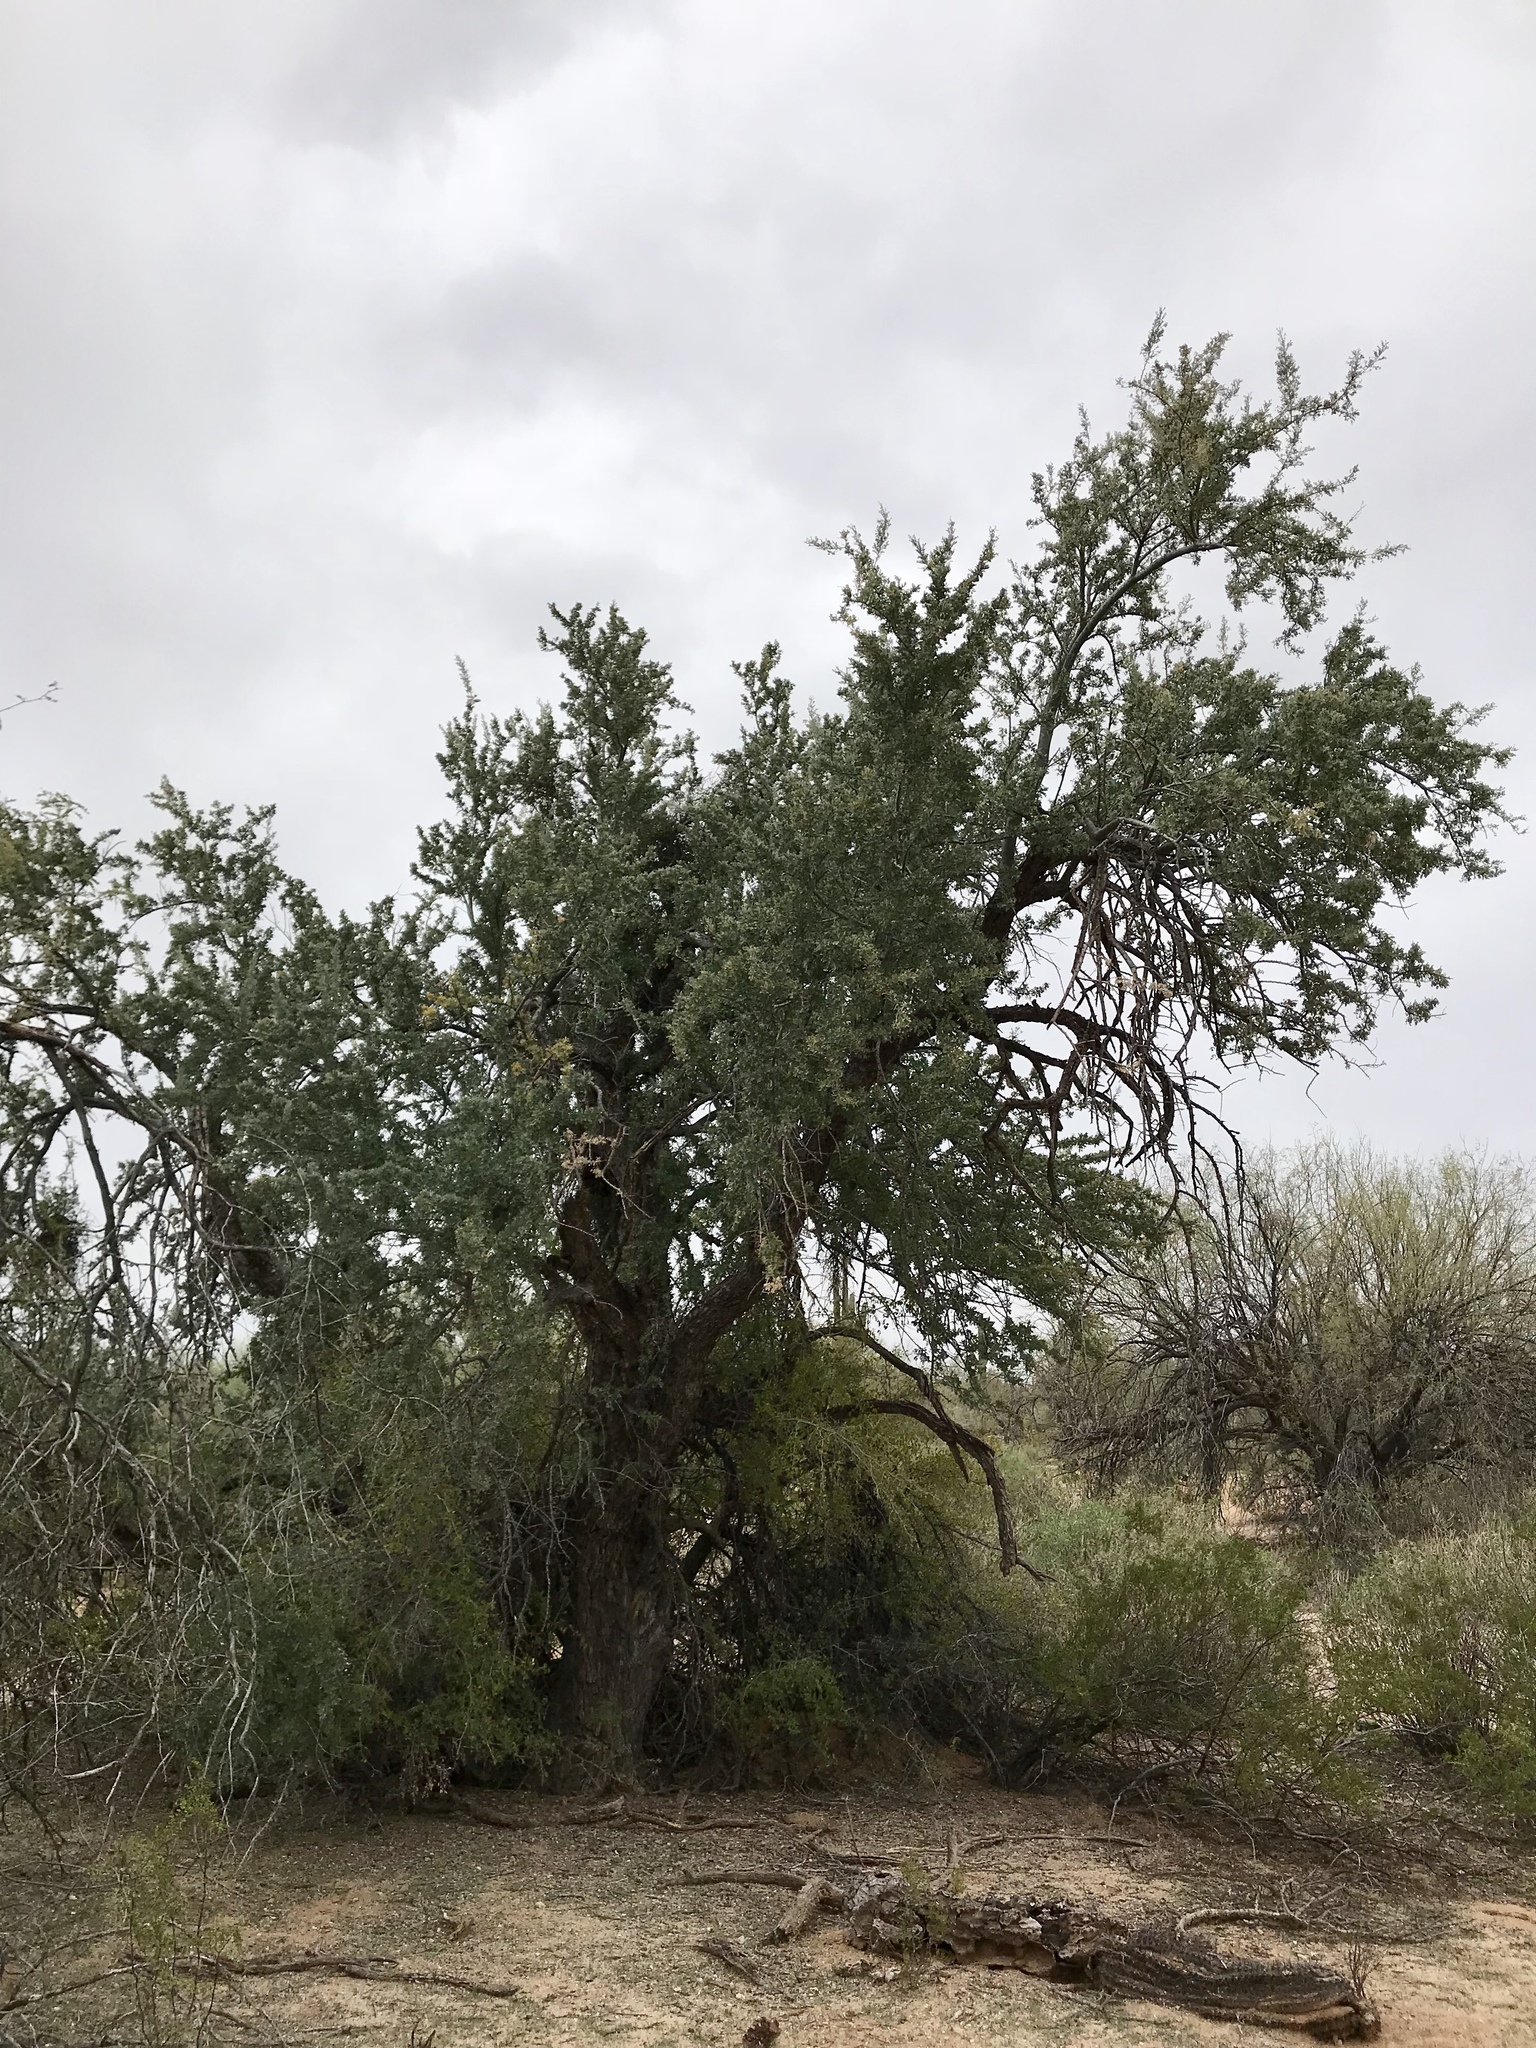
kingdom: Plantae
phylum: Tracheophyta
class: Magnoliopsida
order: Fabales
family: Fabaceae
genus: Olneya
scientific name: Olneya tesota
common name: Desert ironwood
